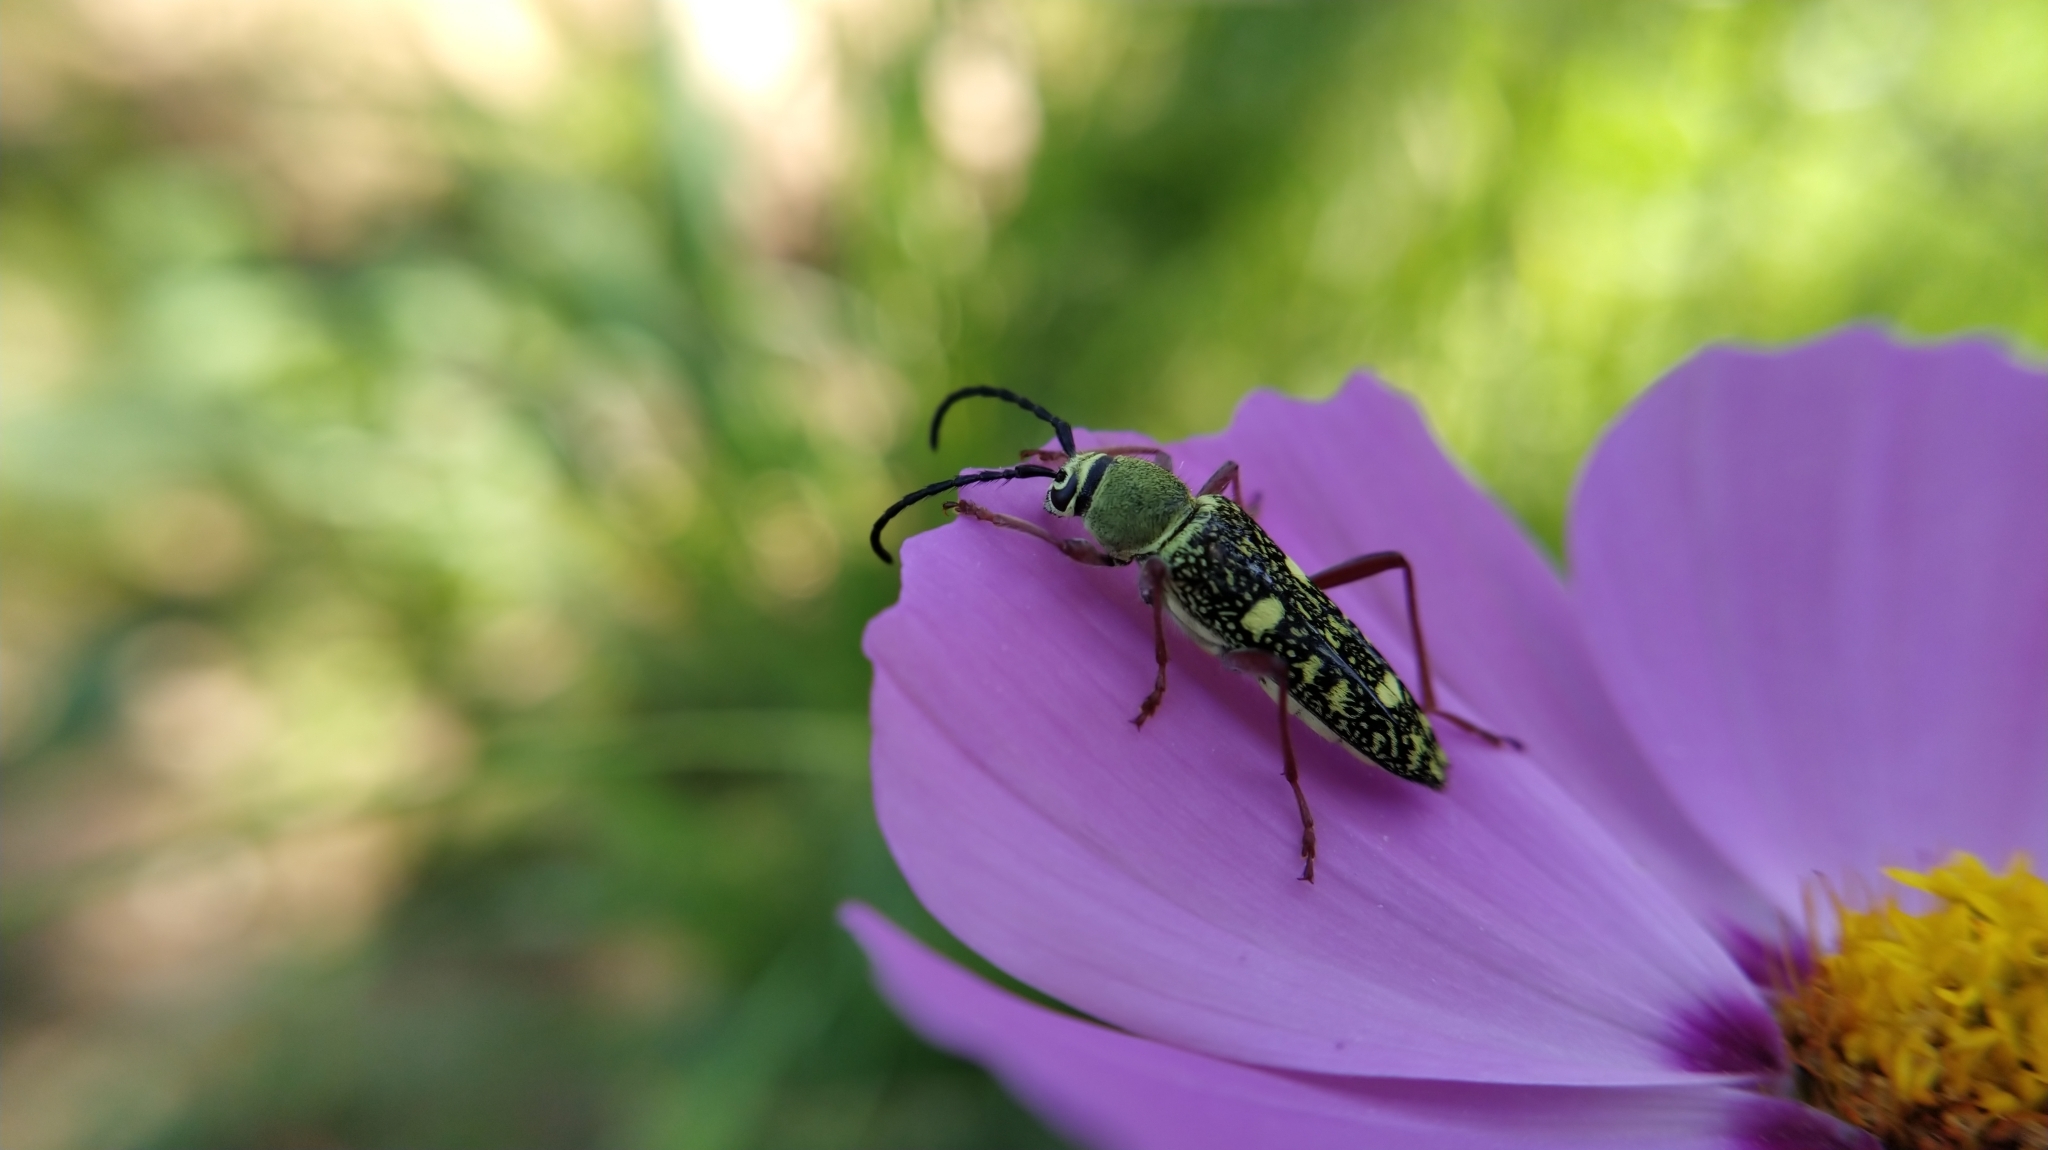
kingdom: Animalia
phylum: Arthropoda
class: Insecta
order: Coleoptera
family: Cerambycidae
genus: Ochraethes
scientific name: Ochraethes
